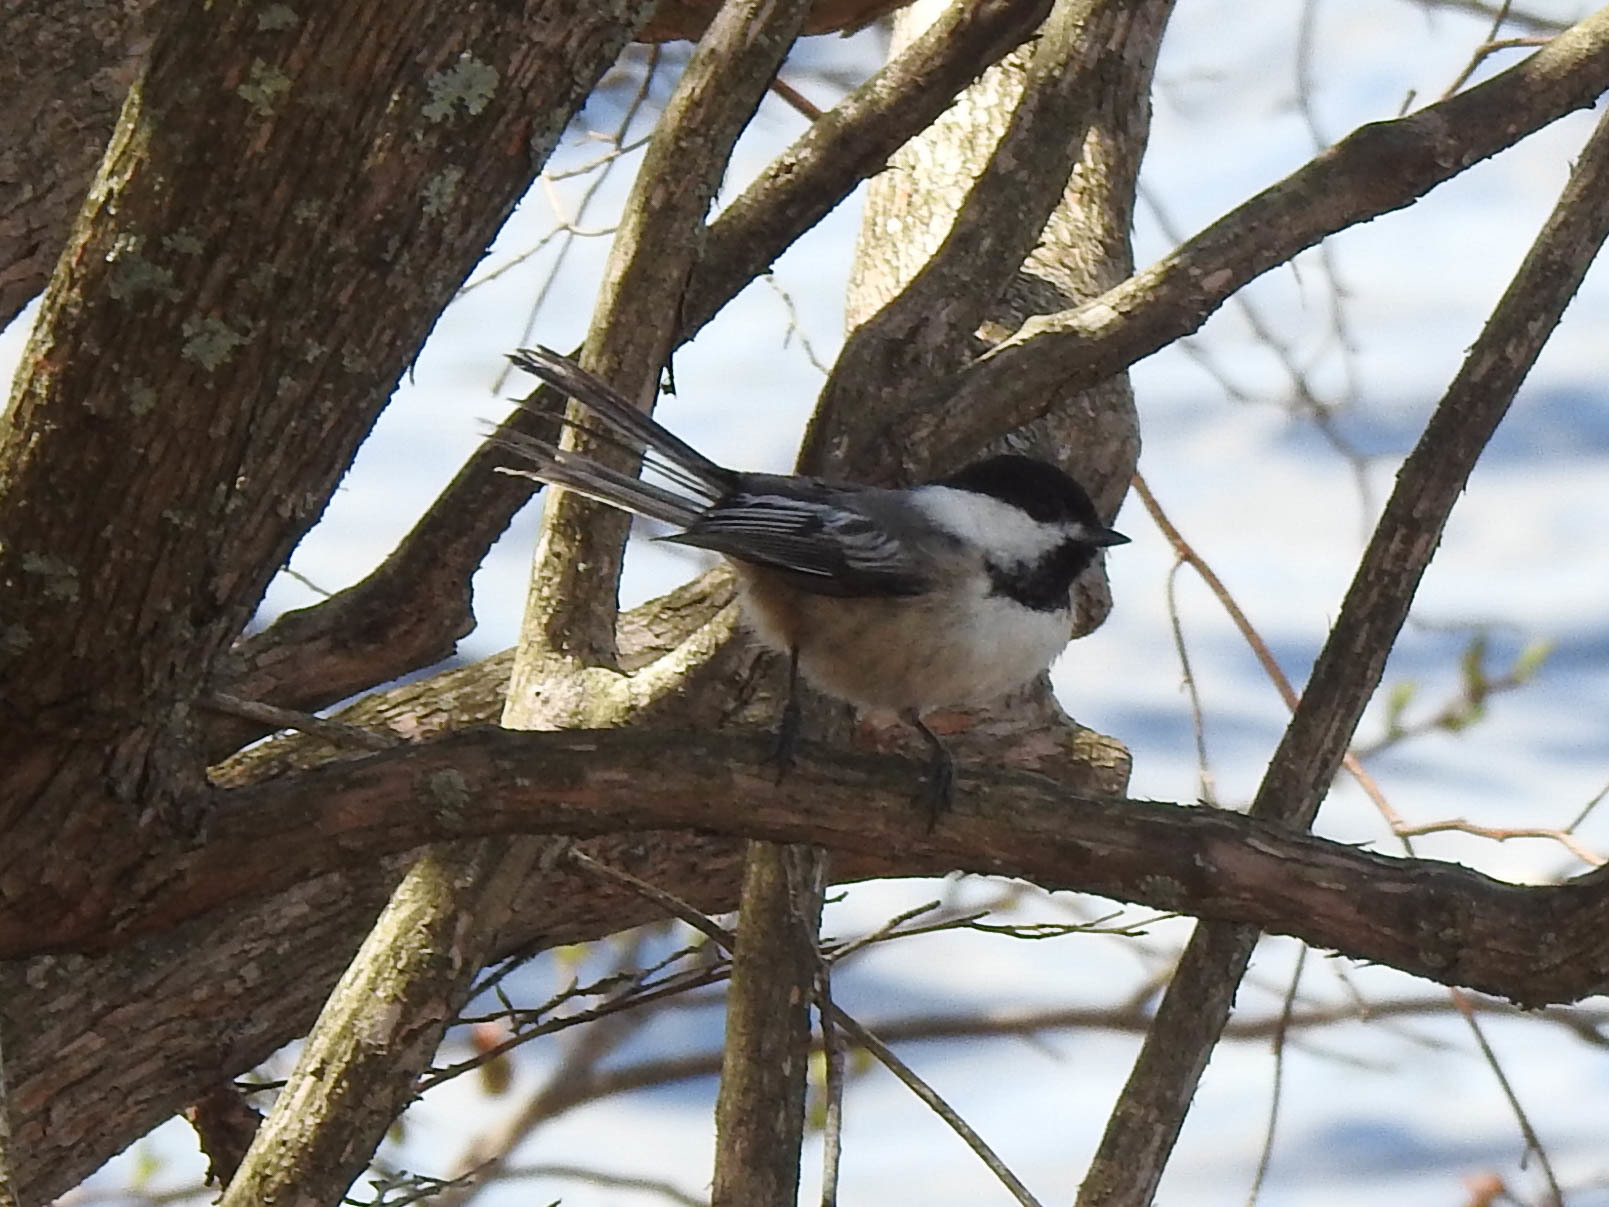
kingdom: Animalia
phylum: Chordata
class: Aves
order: Passeriformes
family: Paridae
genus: Poecile
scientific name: Poecile atricapillus
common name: Black-capped chickadee
